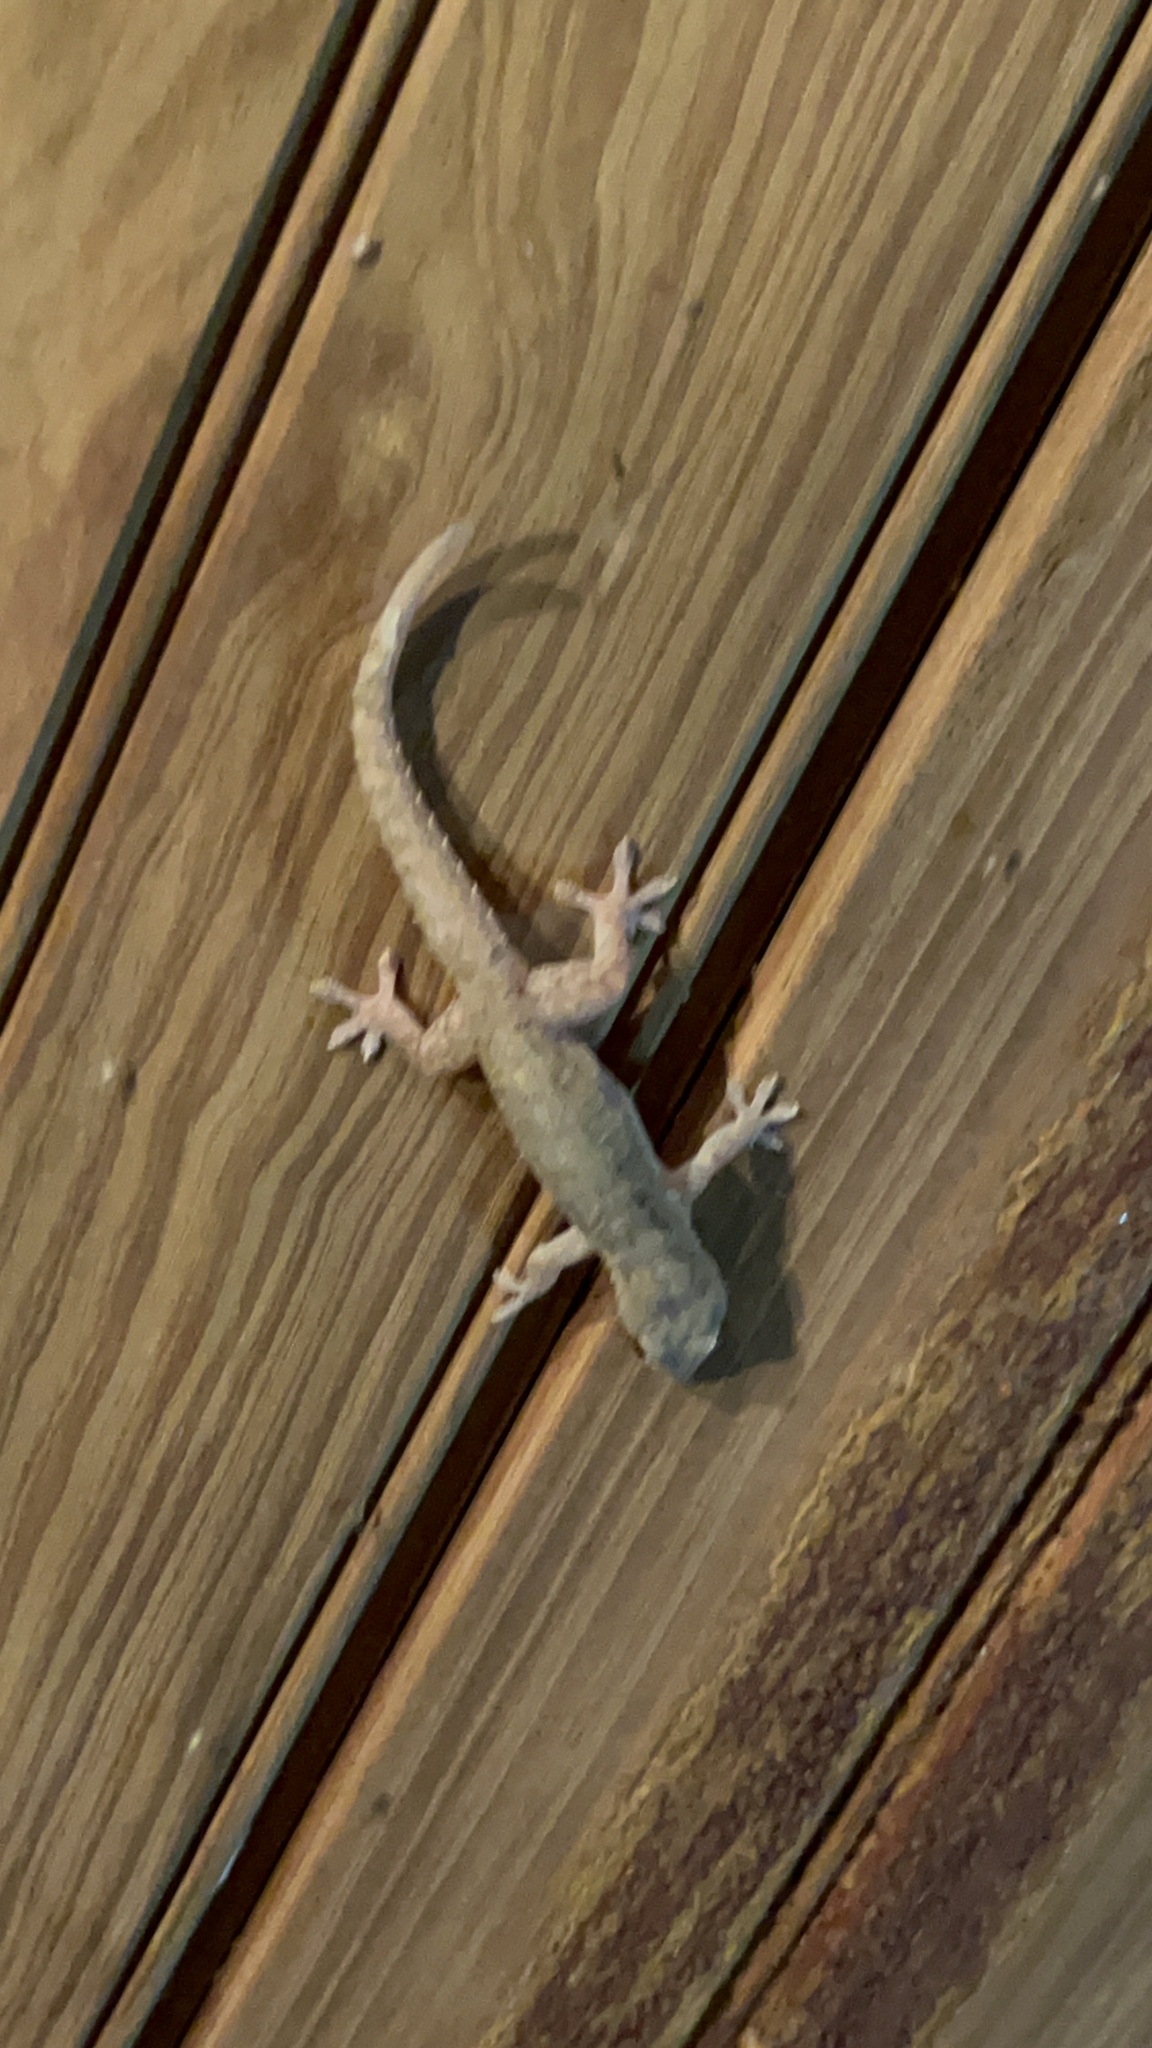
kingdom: Animalia
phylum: Chordata
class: Squamata
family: Gekkonidae
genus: Hemidactylus
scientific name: Hemidactylus frenatus
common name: Common house gecko
